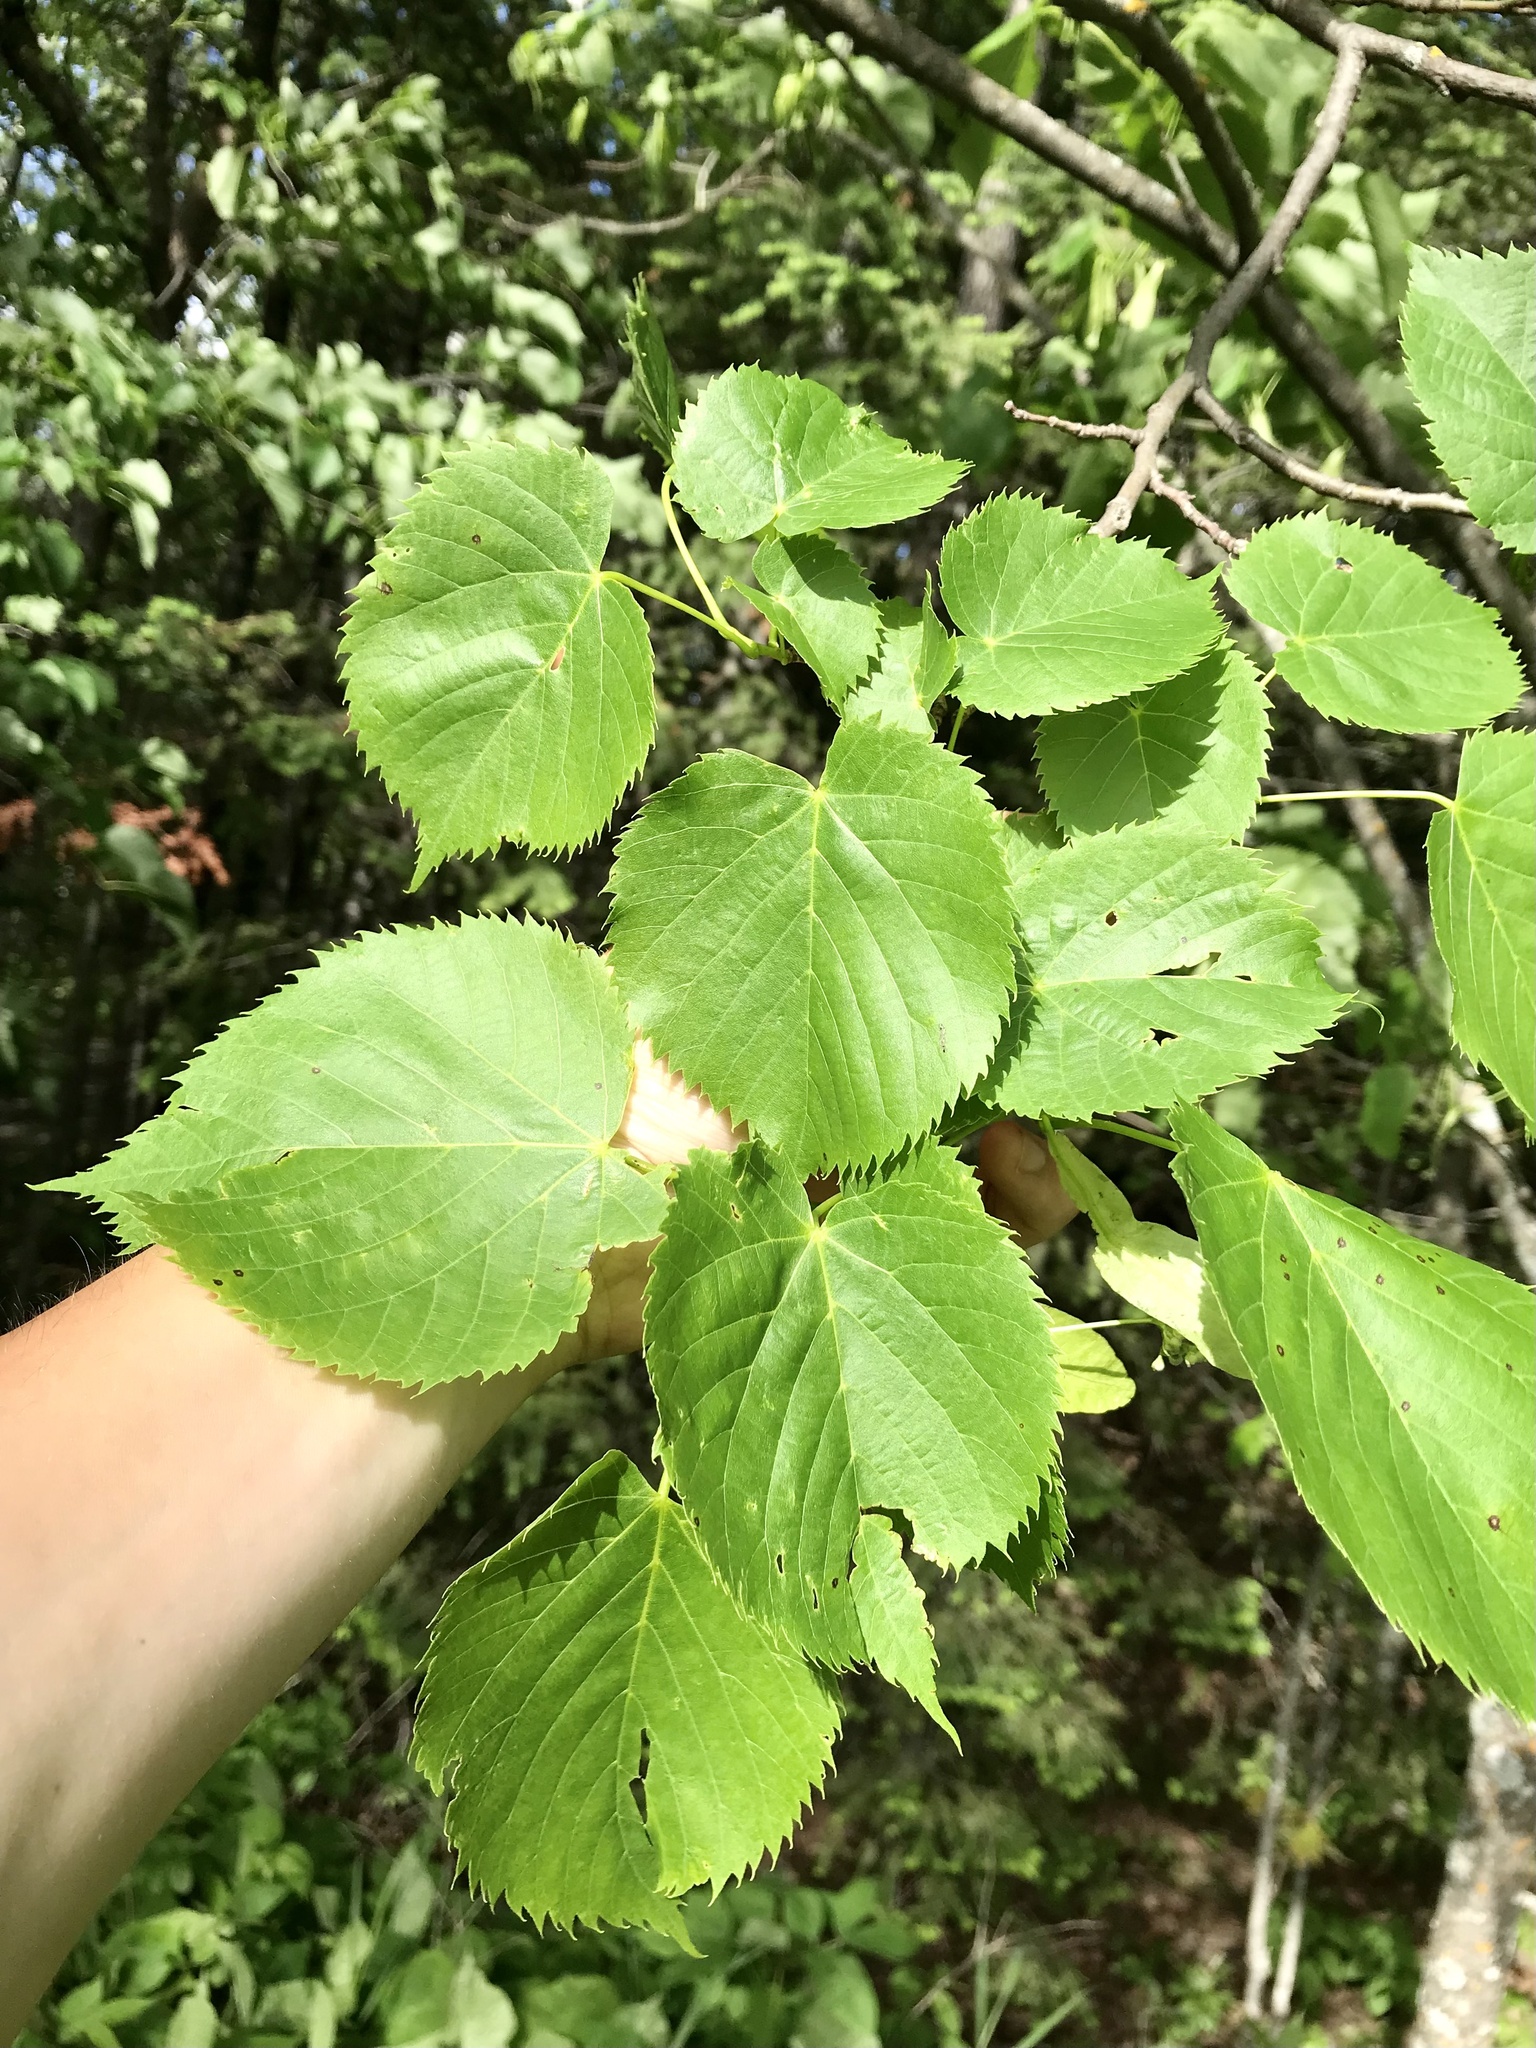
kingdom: Plantae
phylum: Tracheophyta
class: Magnoliopsida
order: Malvales
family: Malvaceae
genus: Tilia
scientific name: Tilia americana
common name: Basswood
